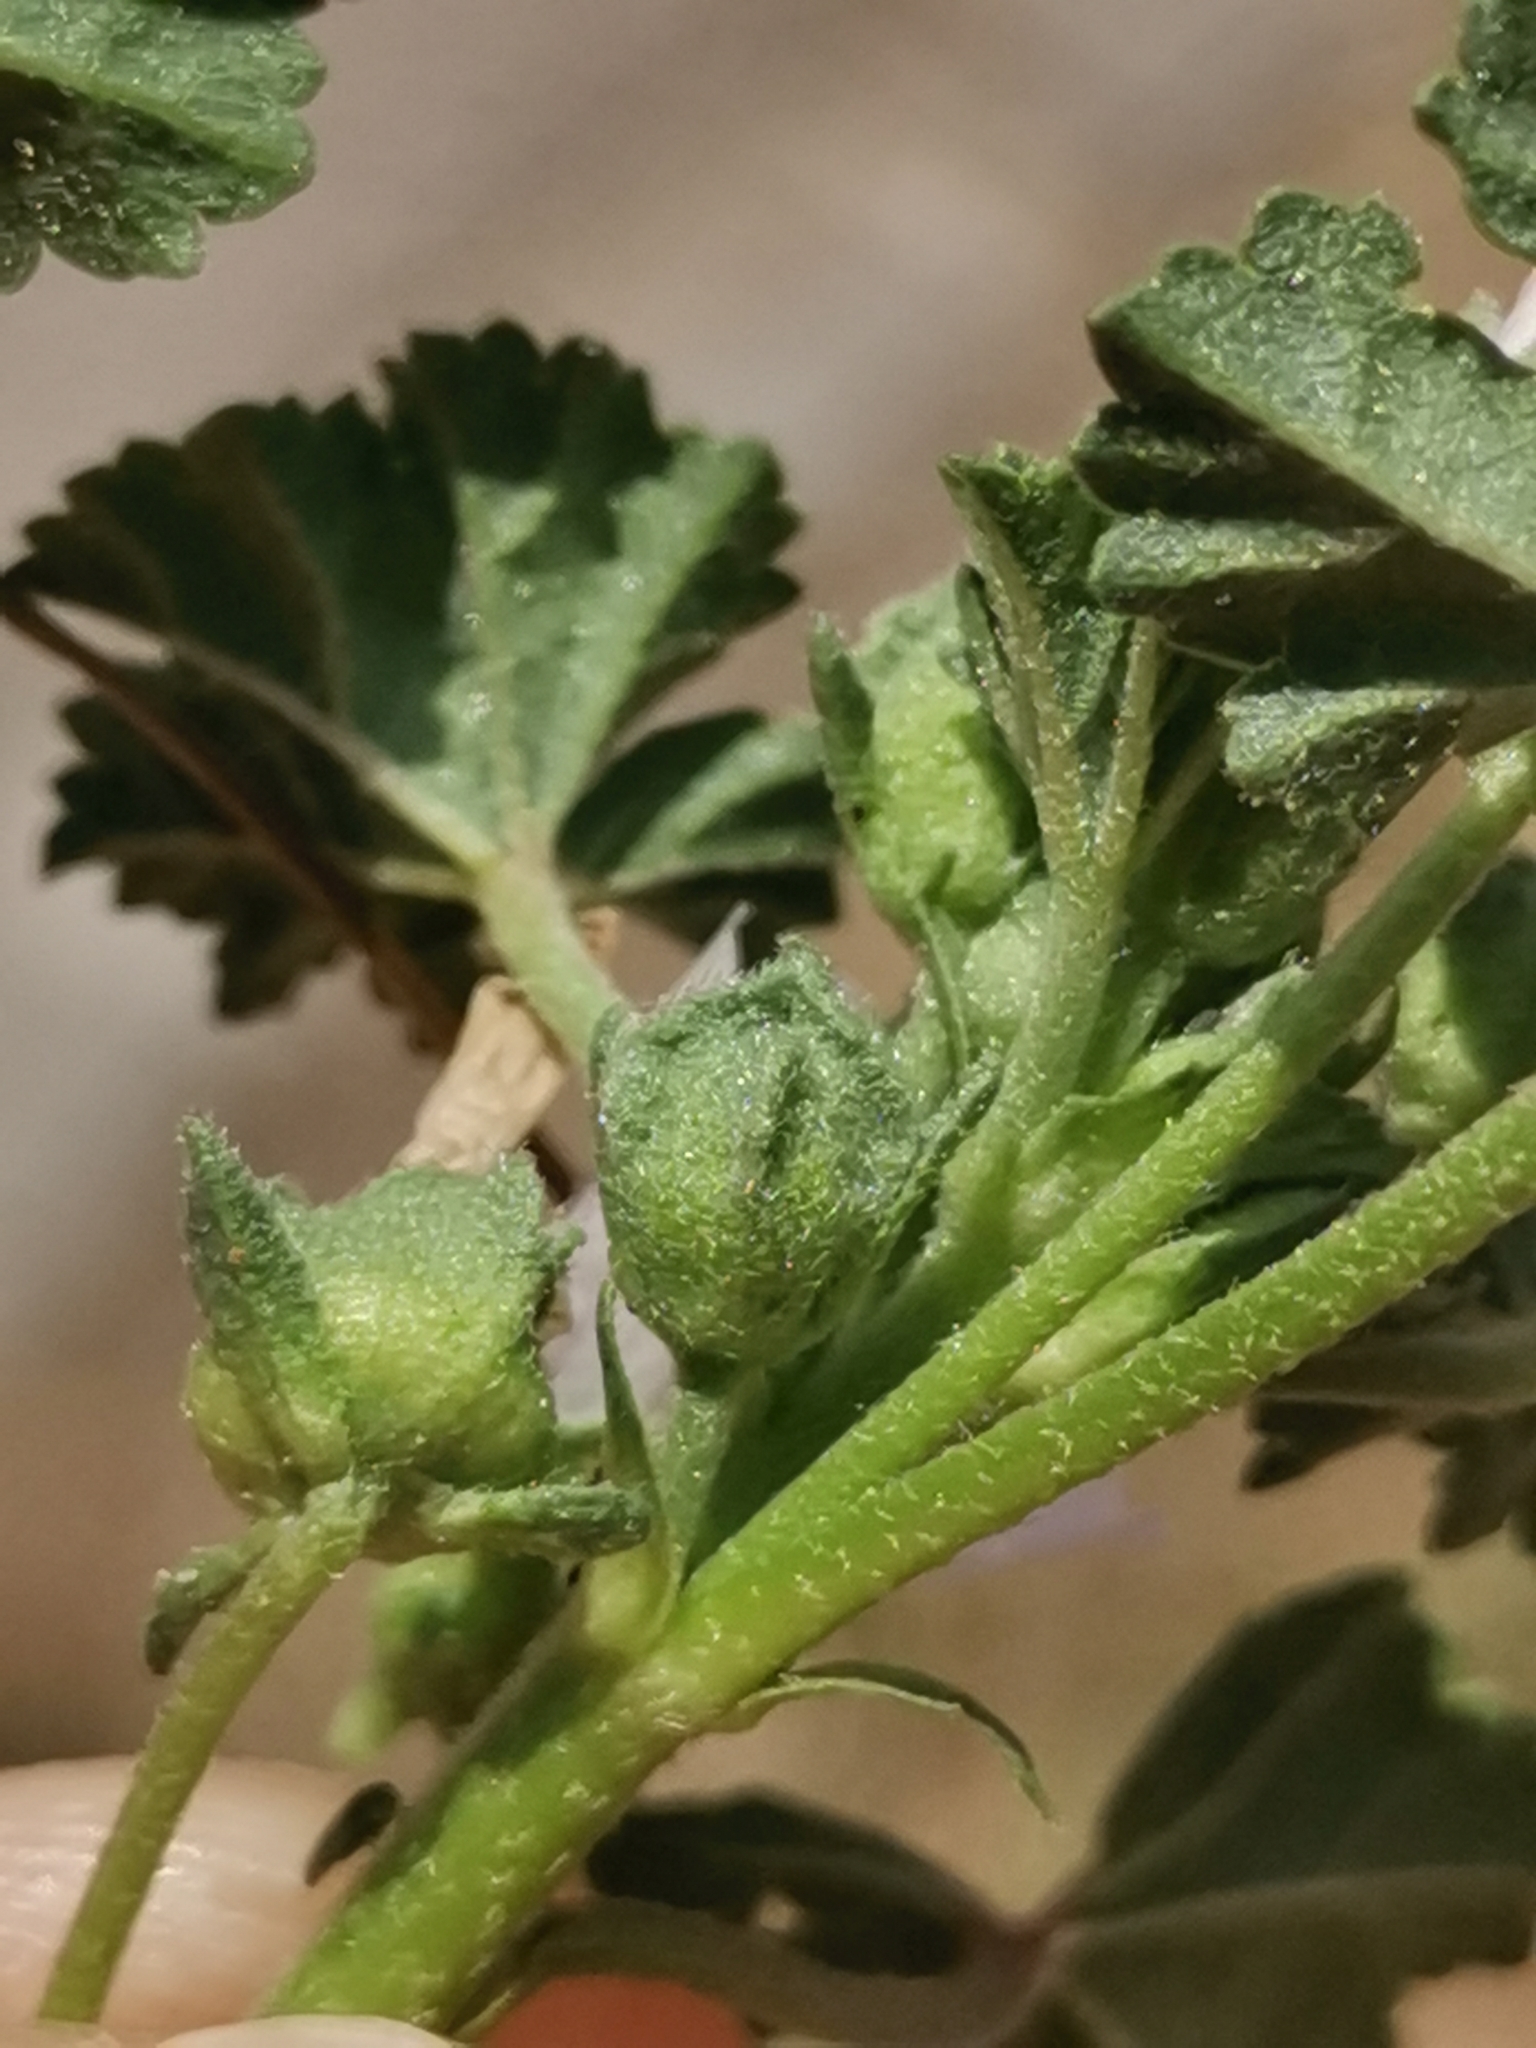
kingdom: Plantae
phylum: Tracheophyta
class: Magnoliopsida
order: Malvales
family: Malvaceae
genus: Malva
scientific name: Malva neglecta
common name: Common mallow
